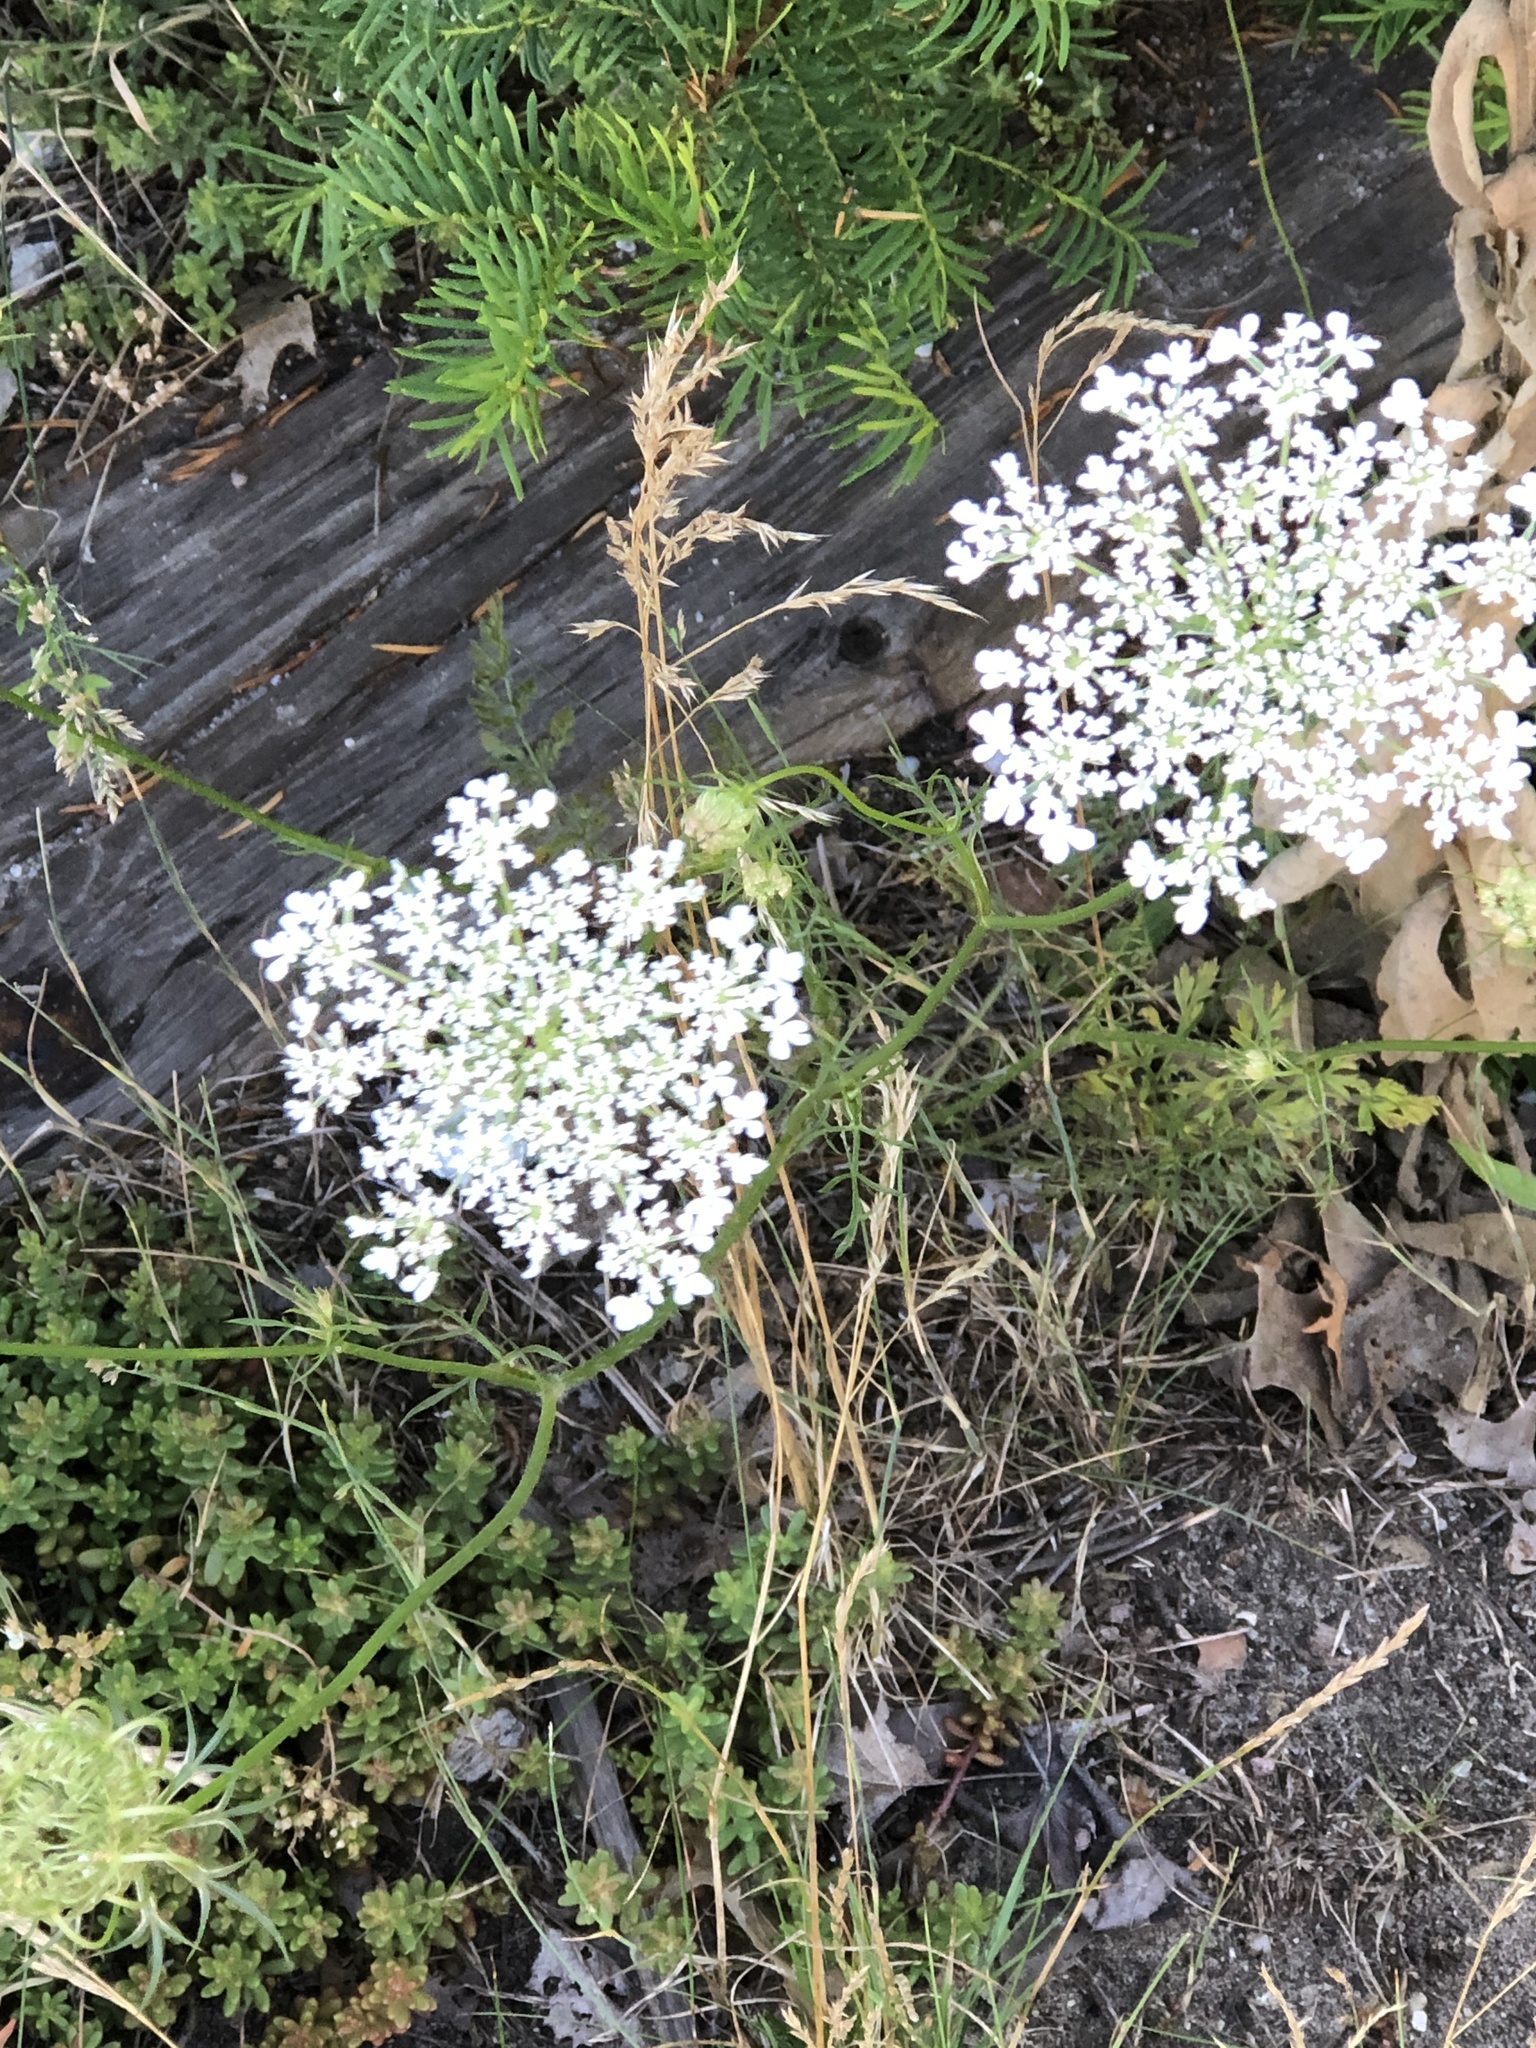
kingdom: Plantae
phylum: Tracheophyta
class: Magnoliopsida
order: Apiales
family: Apiaceae
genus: Daucus
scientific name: Daucus carota
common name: Wild carrot
